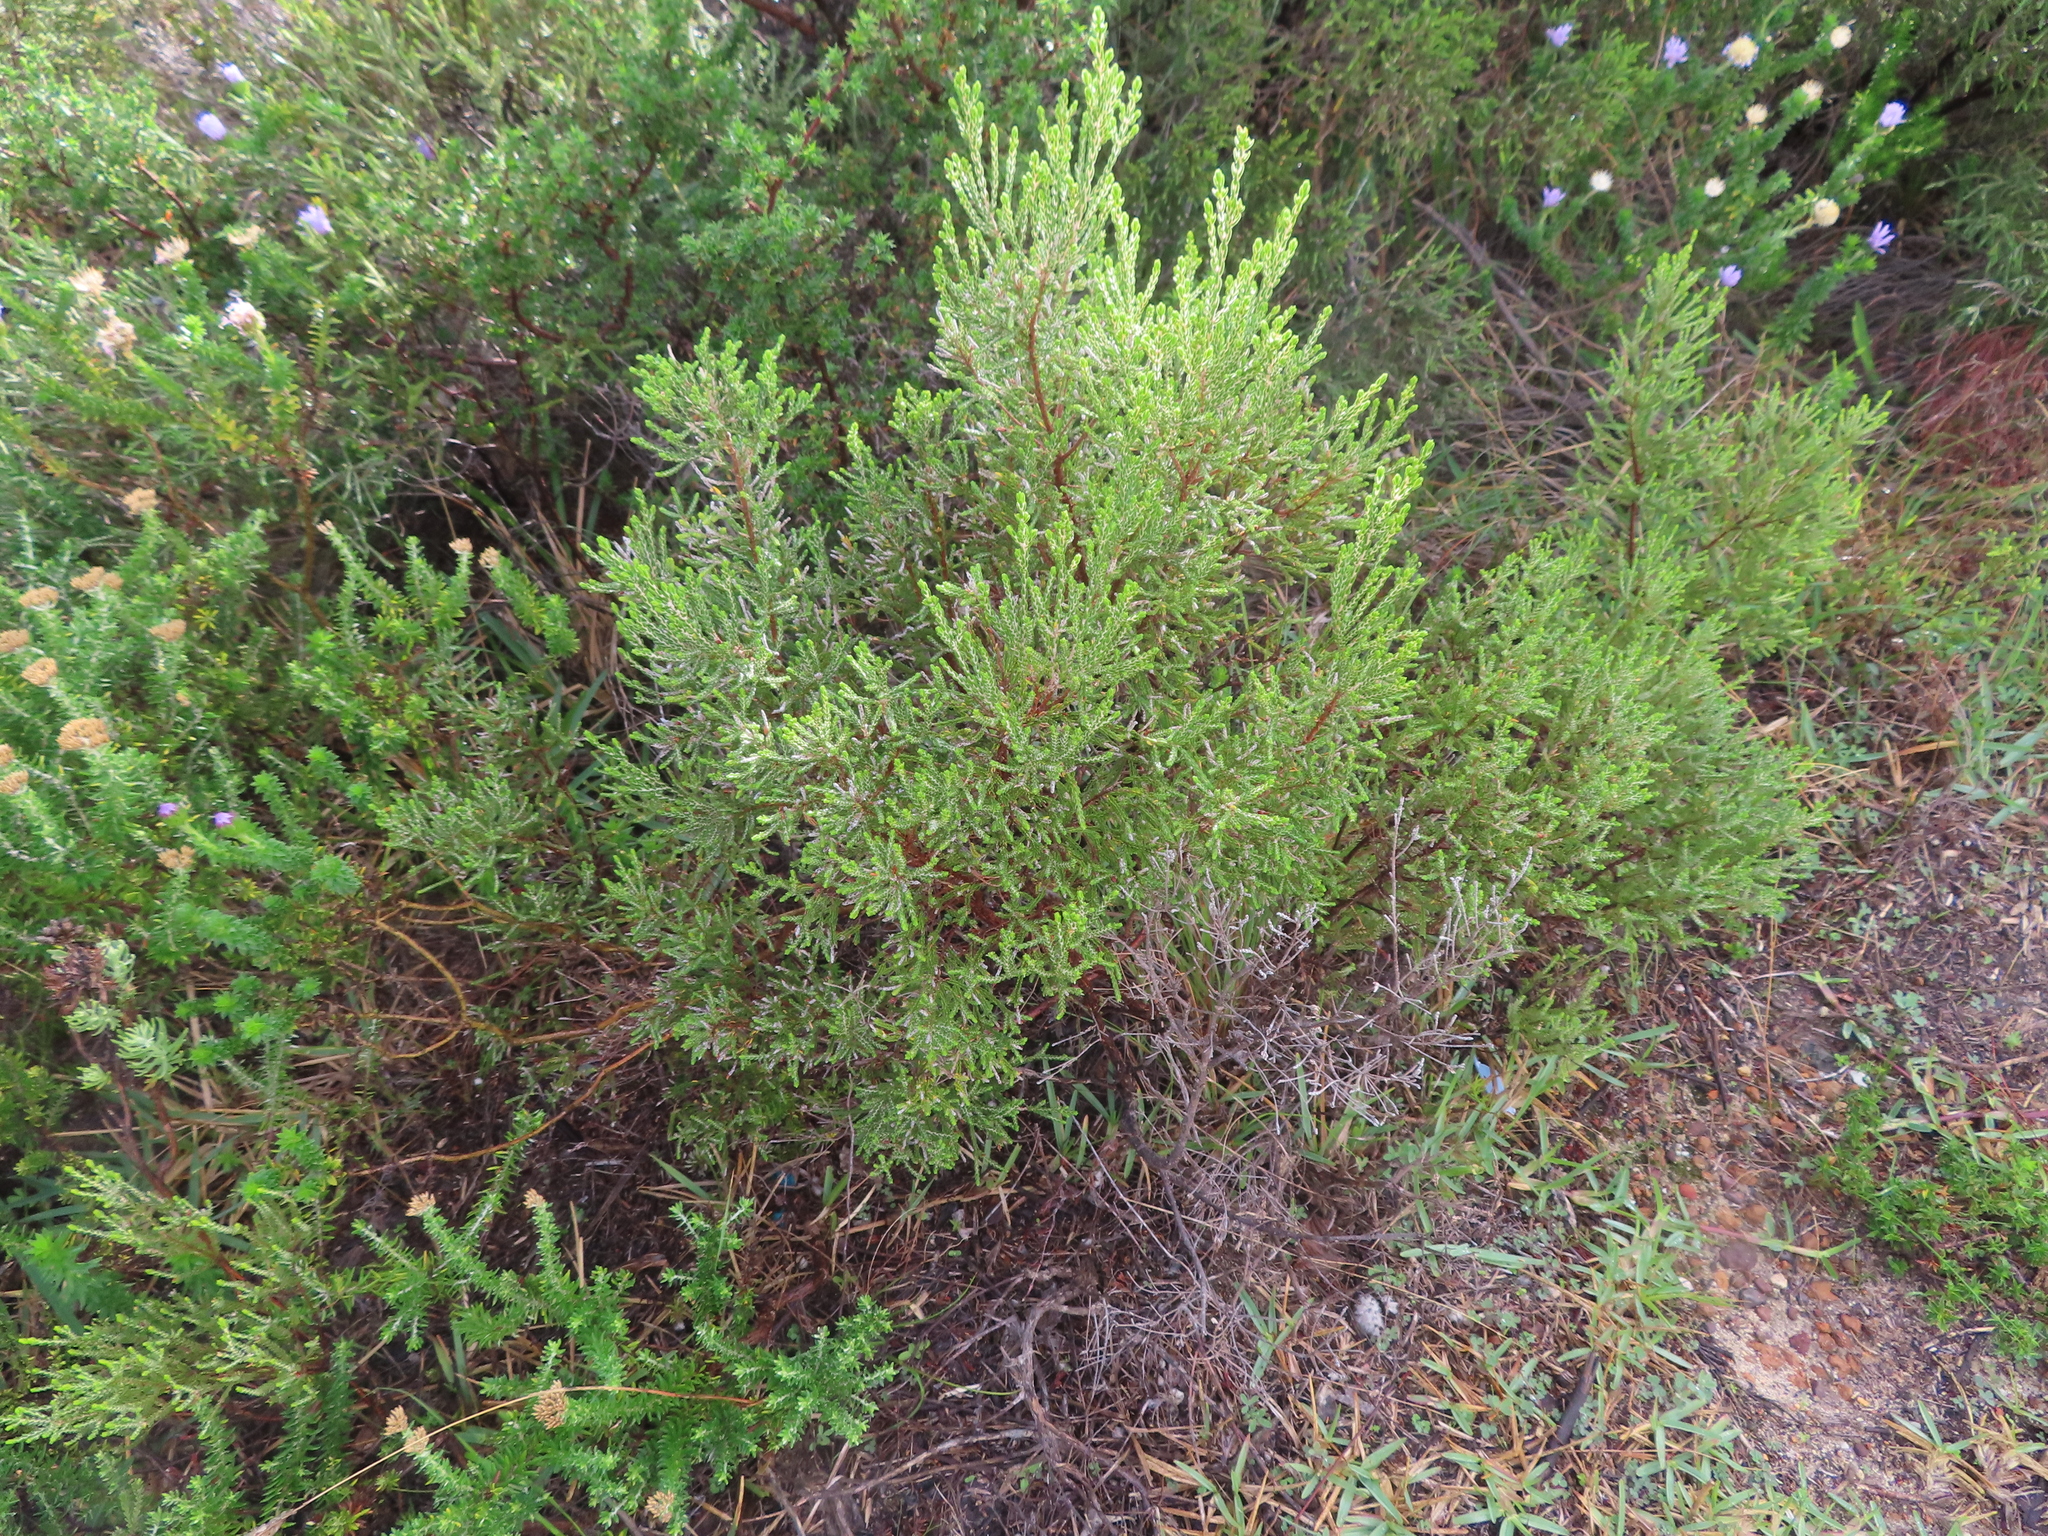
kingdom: Plantae
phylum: Tracheophyta
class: Magnoliopsida
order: Malvales
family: Thymelaeaceae
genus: Passerina
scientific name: Passerina corymbosa
